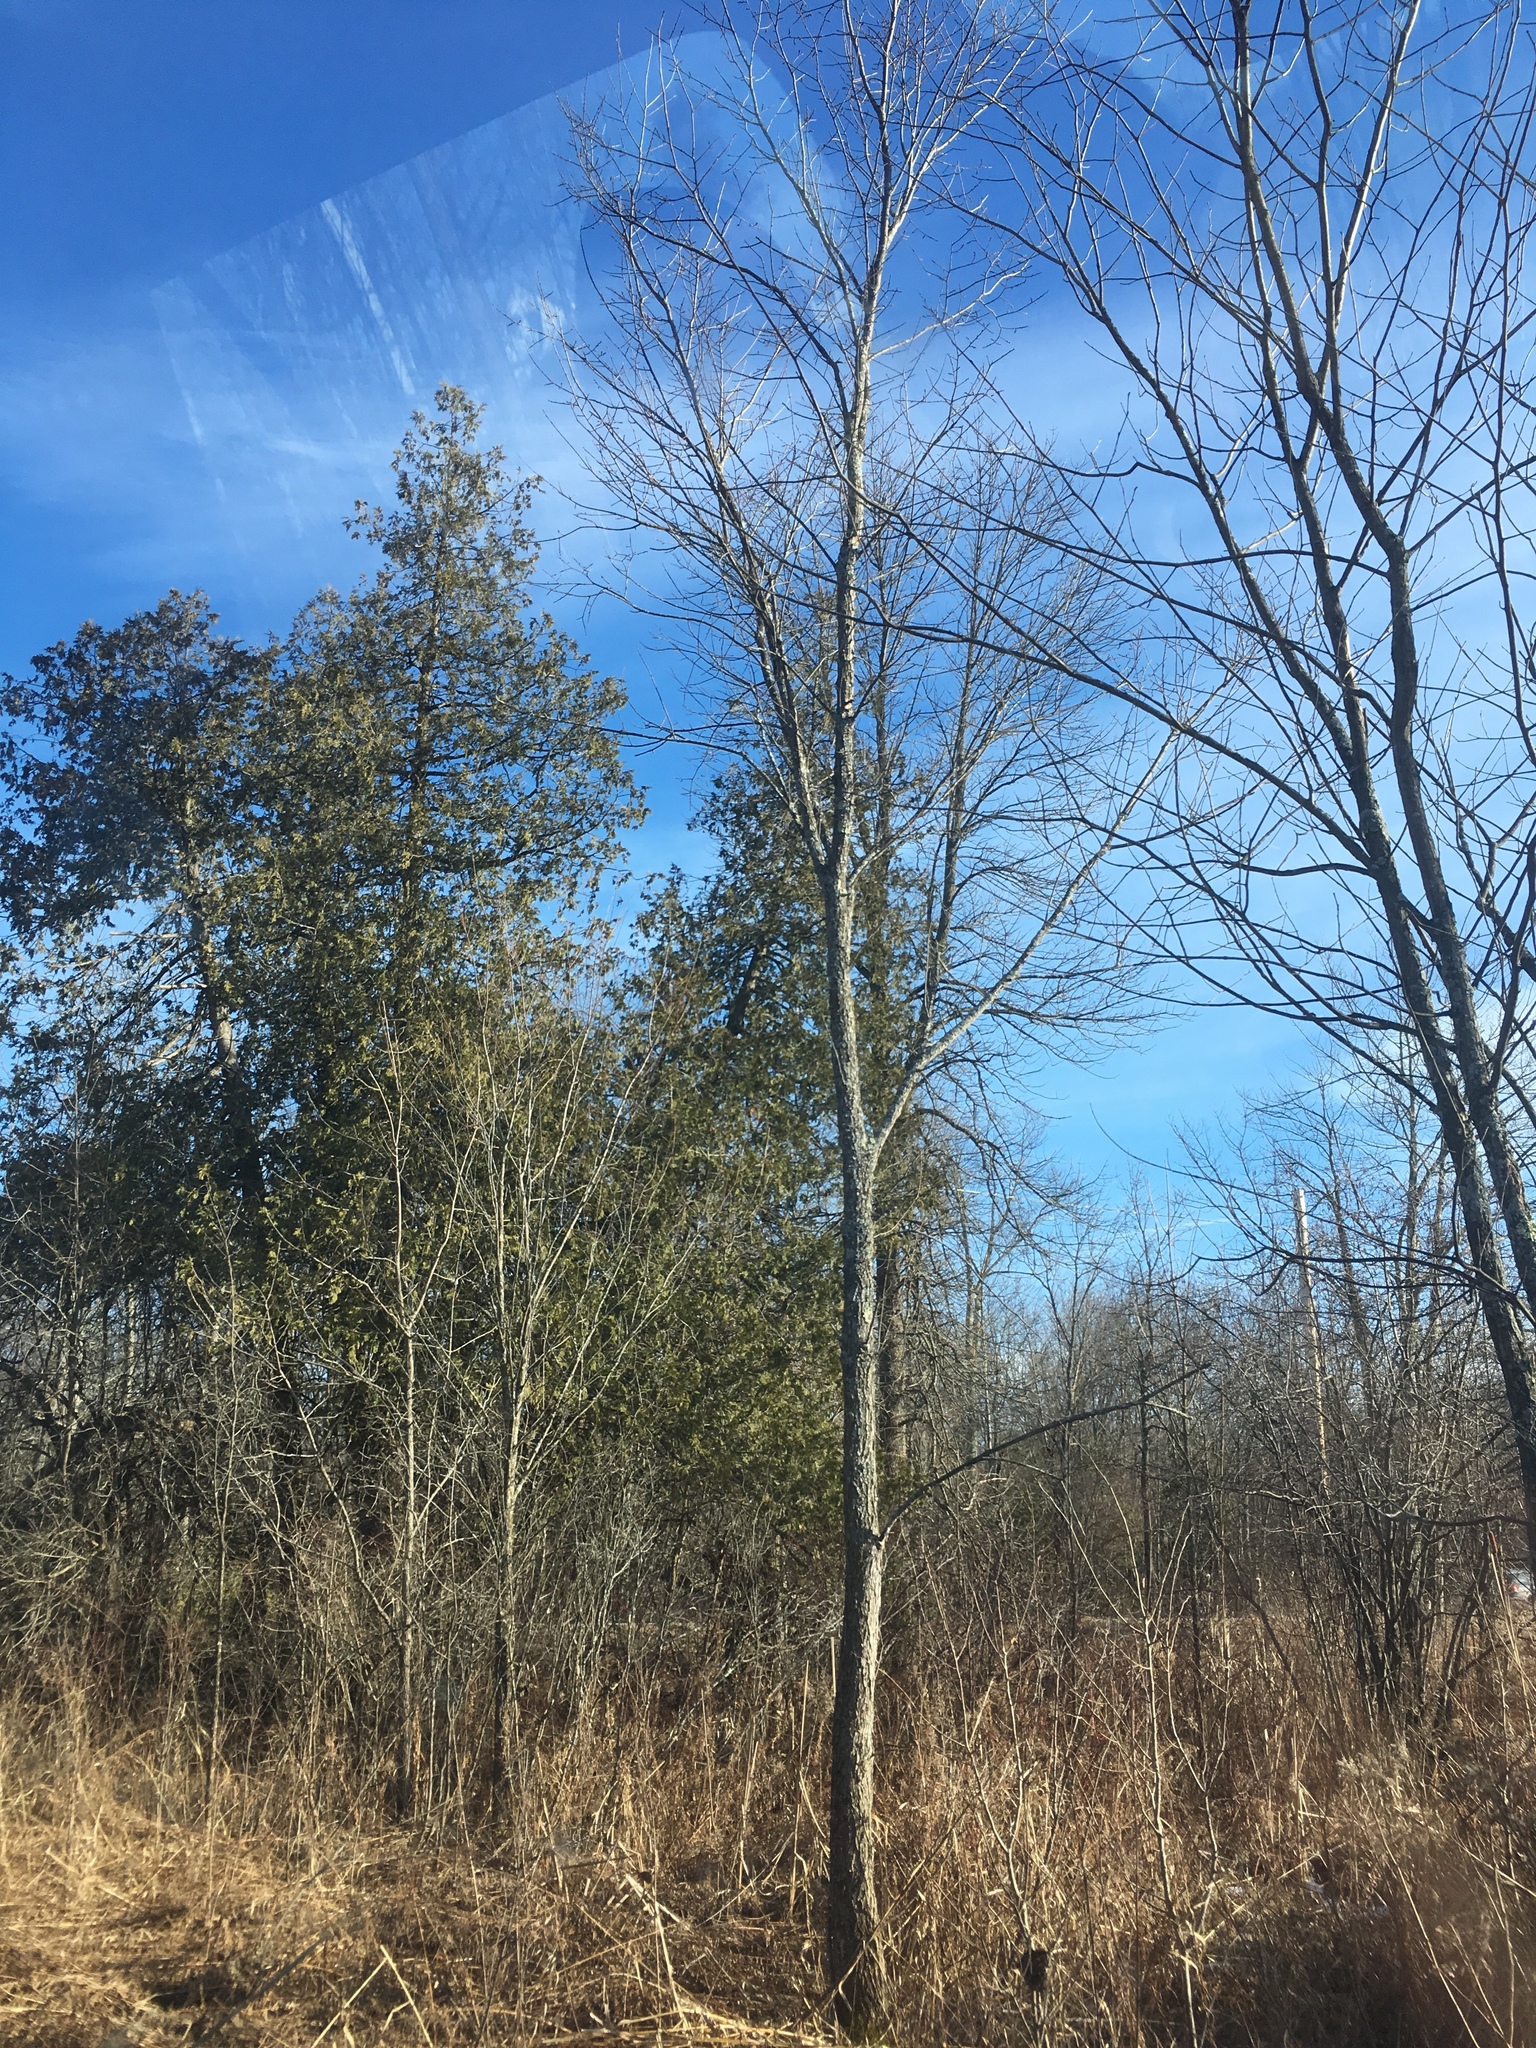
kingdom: Plantae
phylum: Tracheophyta
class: Pinopsida
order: Pinales
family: Cupressaceae
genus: Thuja
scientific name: Thuja occidentalis
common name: Northern white-cedar
